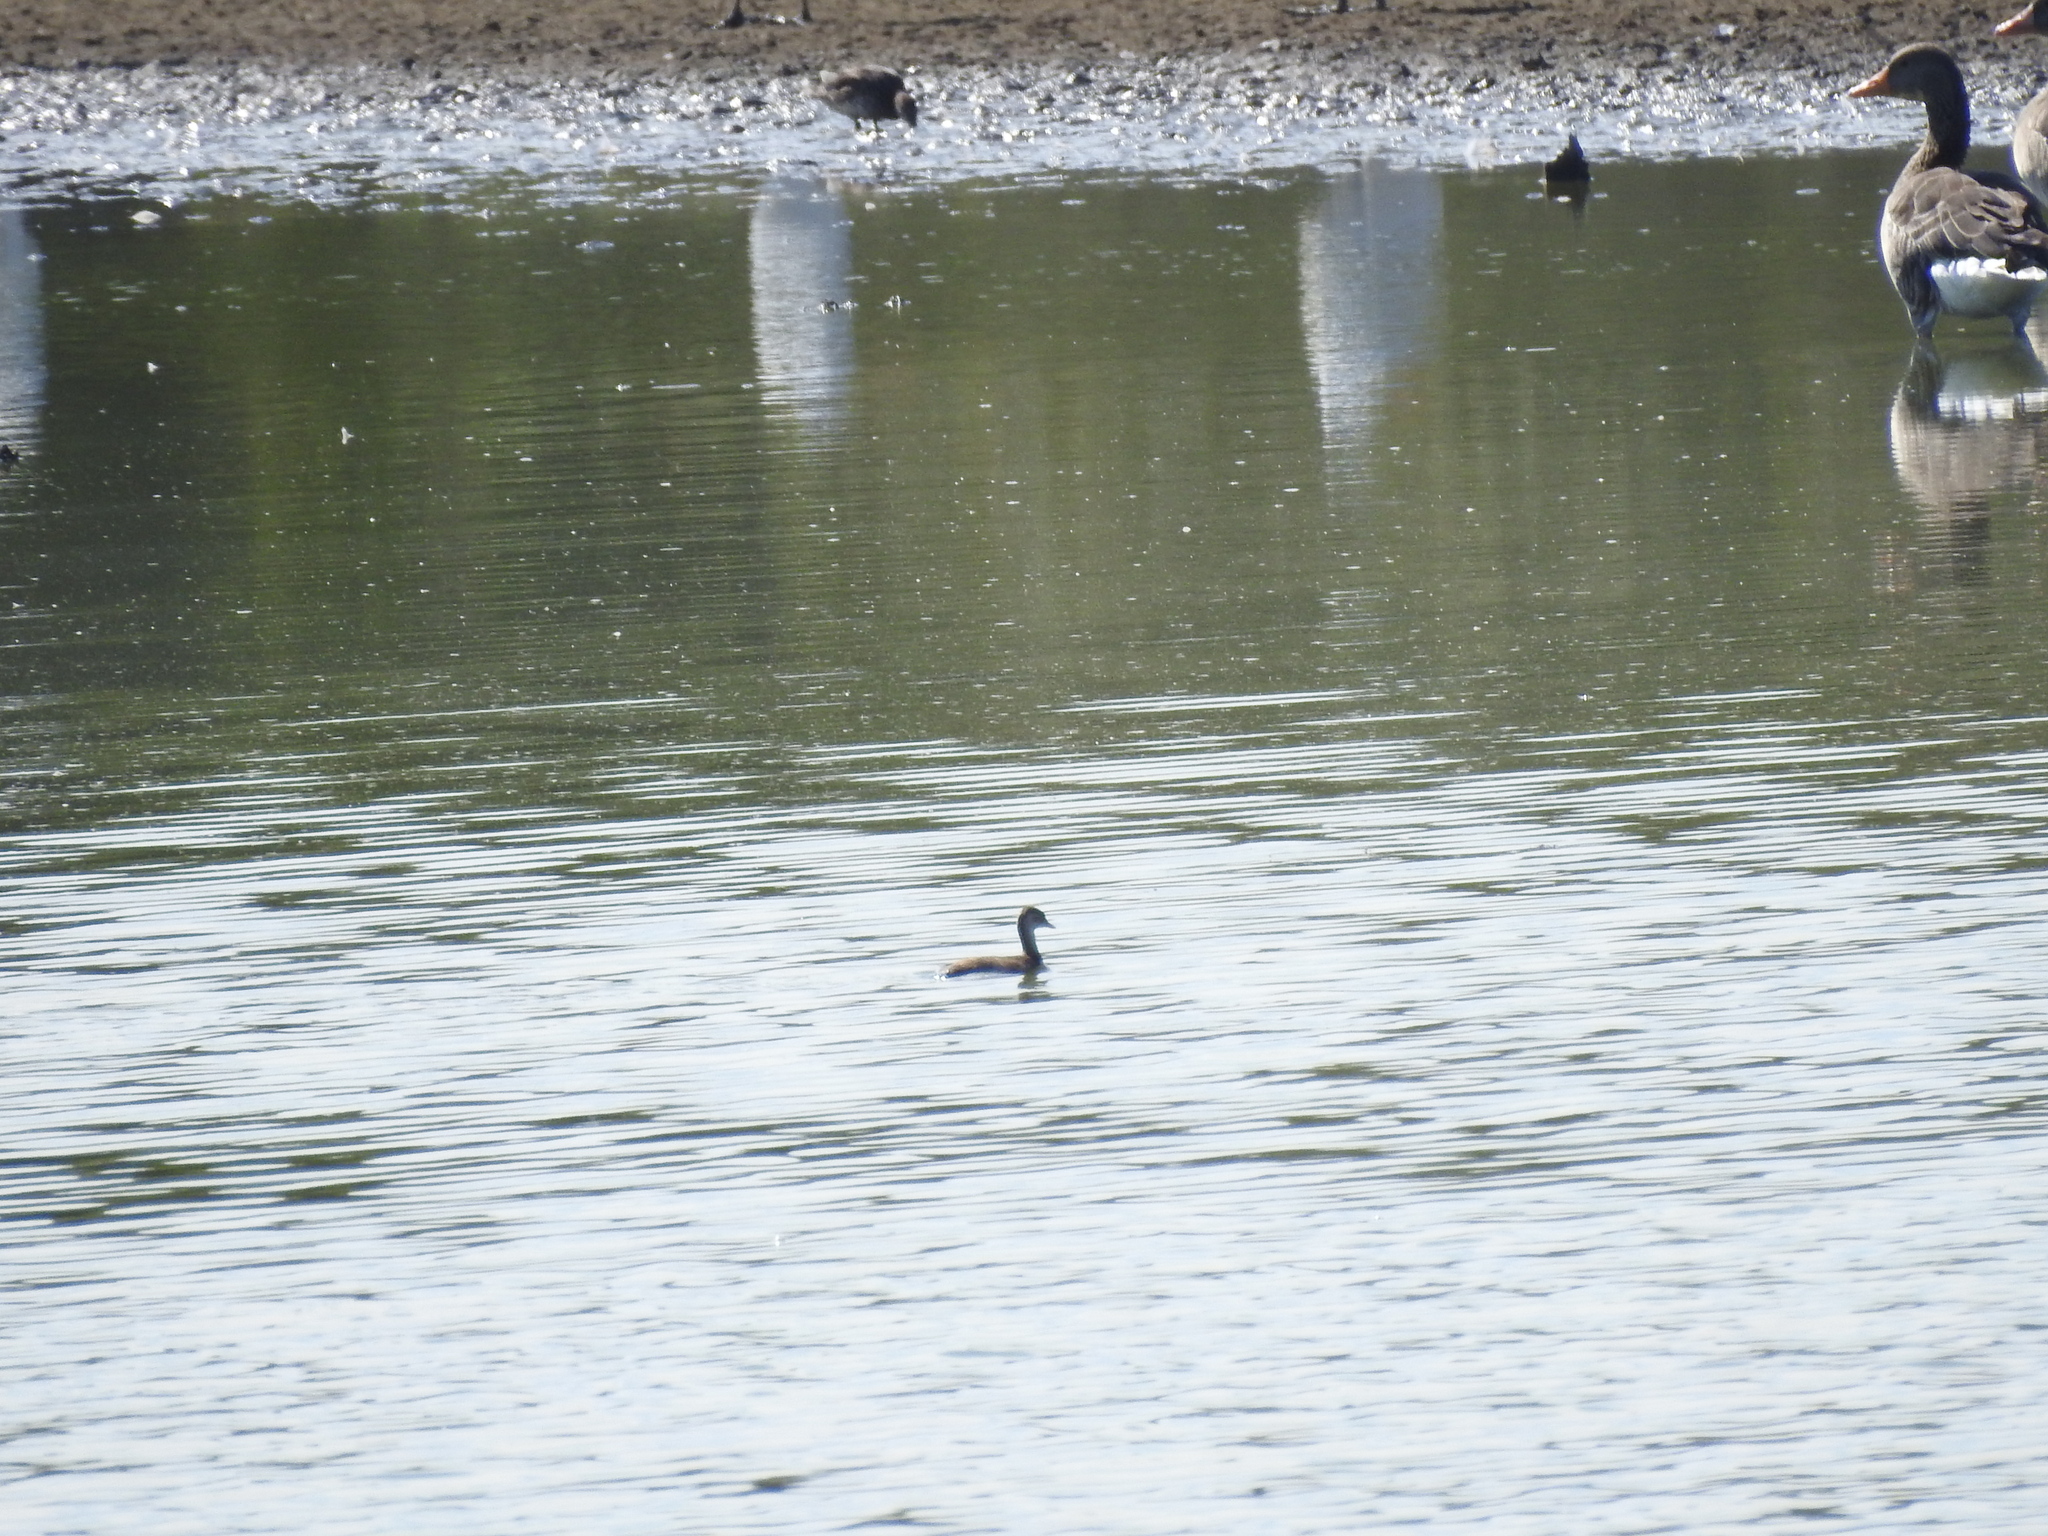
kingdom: Animalia
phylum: Chordata
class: Aves
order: Podicipediformes
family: Podicipedidae
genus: Tachybaptus
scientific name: Tachybaptus ruficollis
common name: Little grebe
